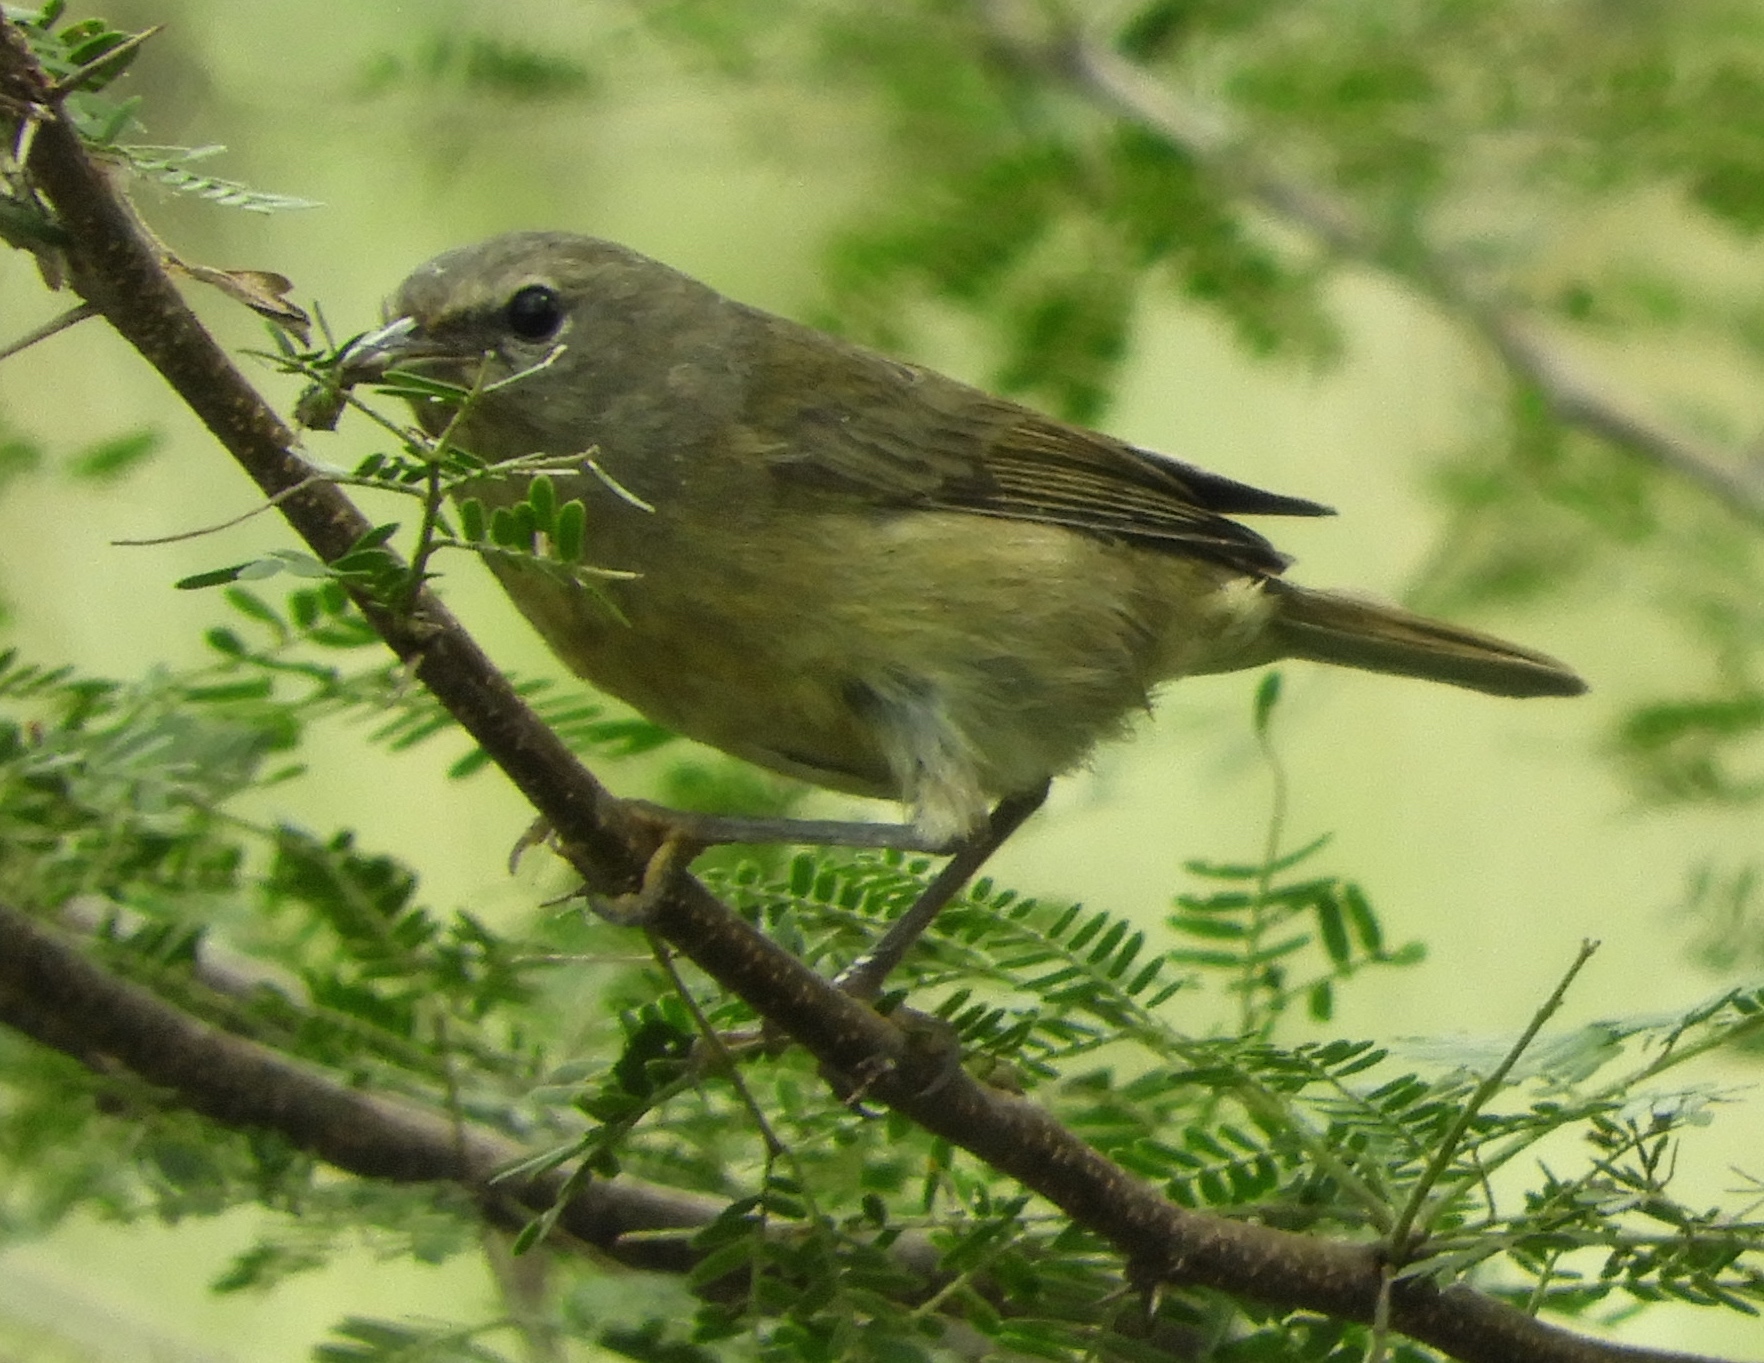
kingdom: Animalia
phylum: Chordata
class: Aves
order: Passeriformes
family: Parulidae
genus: Leiothlypis
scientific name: Leiothlypis celata
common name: Orange-crowned warbler
